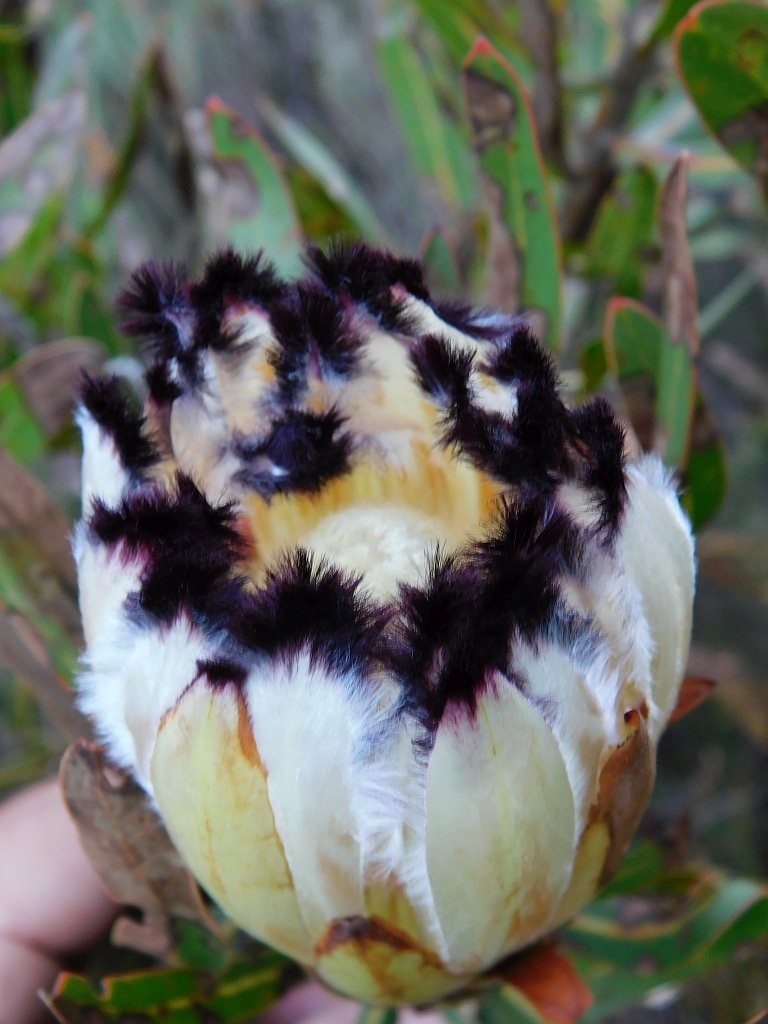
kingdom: Plantae
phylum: Tracheophyta
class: Magnoliopsida
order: Proteales
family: Proteaceae
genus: Protea
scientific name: Protea neriifolia
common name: Blue sugarbush
